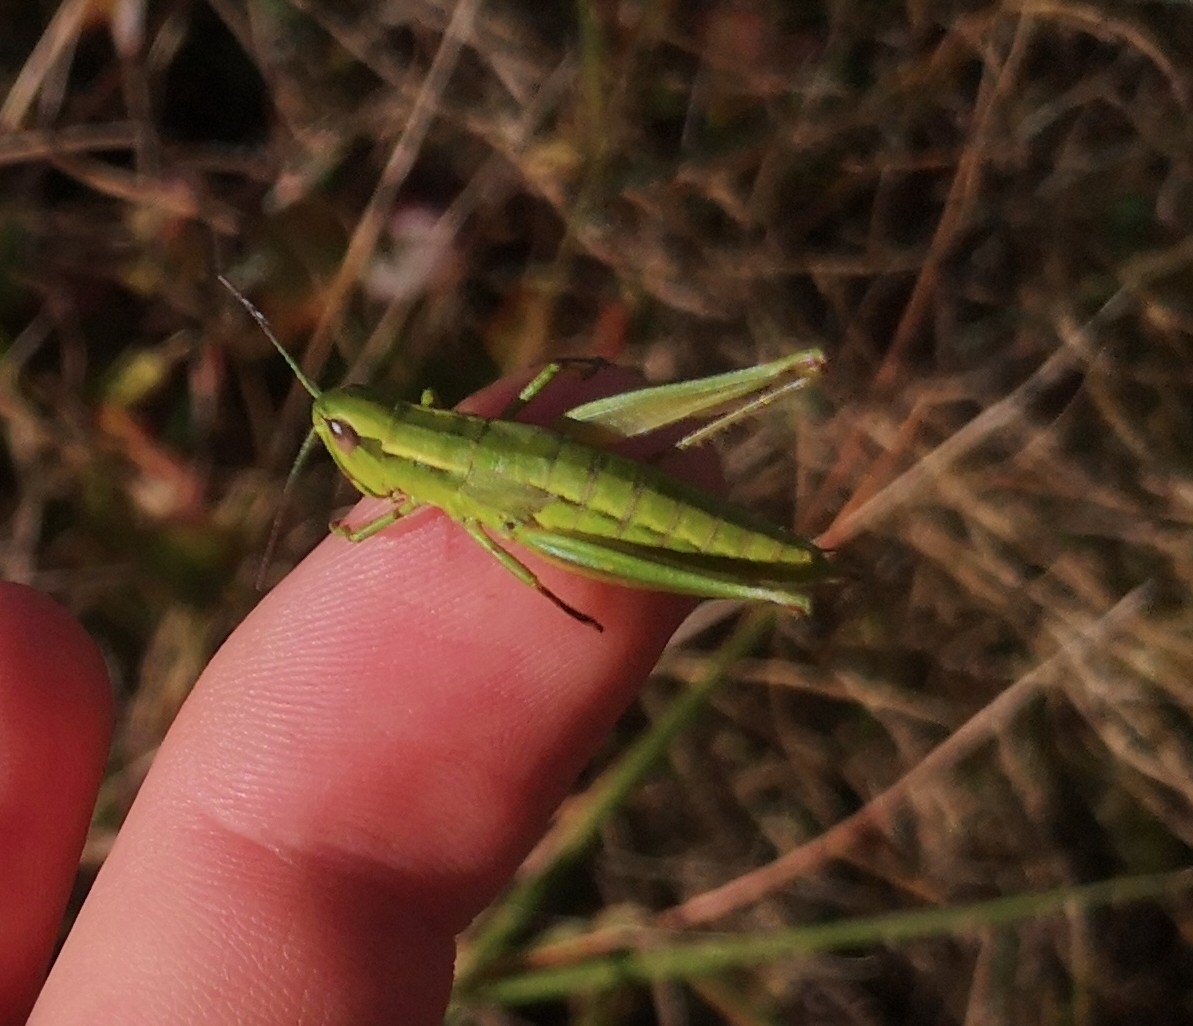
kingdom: Animalia
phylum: Arthropoda
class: Insecta
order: Orthoptera
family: Acrididae
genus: Euthystira
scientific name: Euthystira brachyptera
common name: Small gold grasshopper
